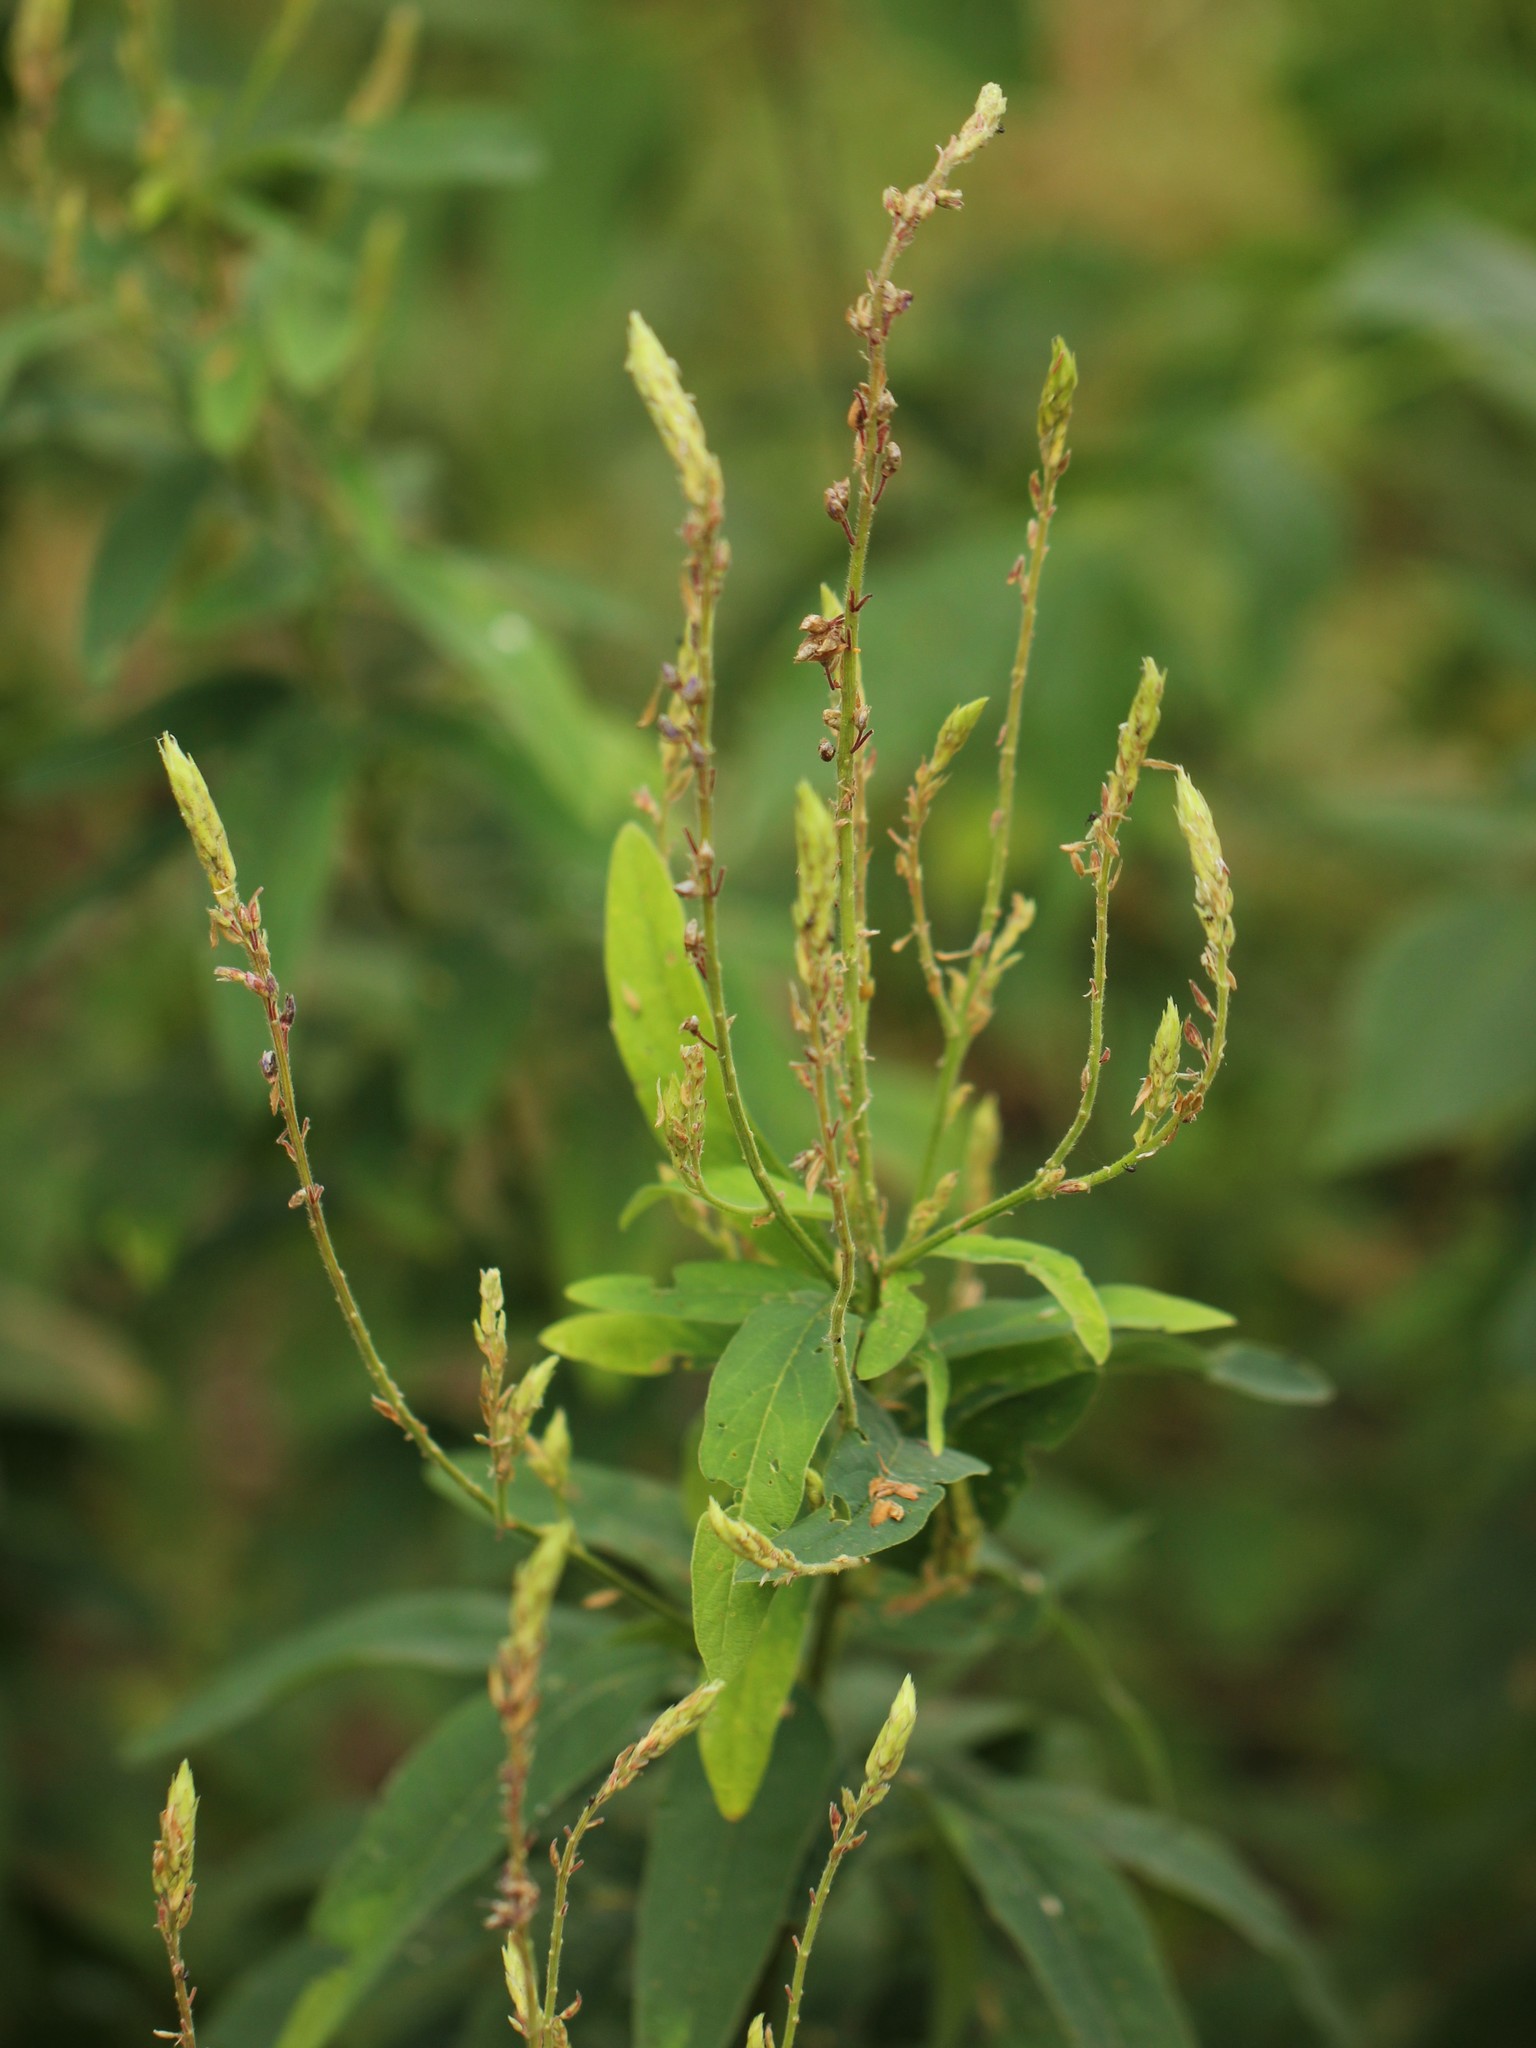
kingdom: Plantae
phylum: Tracheophyta
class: Magnoliopsida
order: Fabales
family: Fabaceae
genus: Desmodium
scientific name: Desmodium canadense
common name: Canada tick-trefoil
